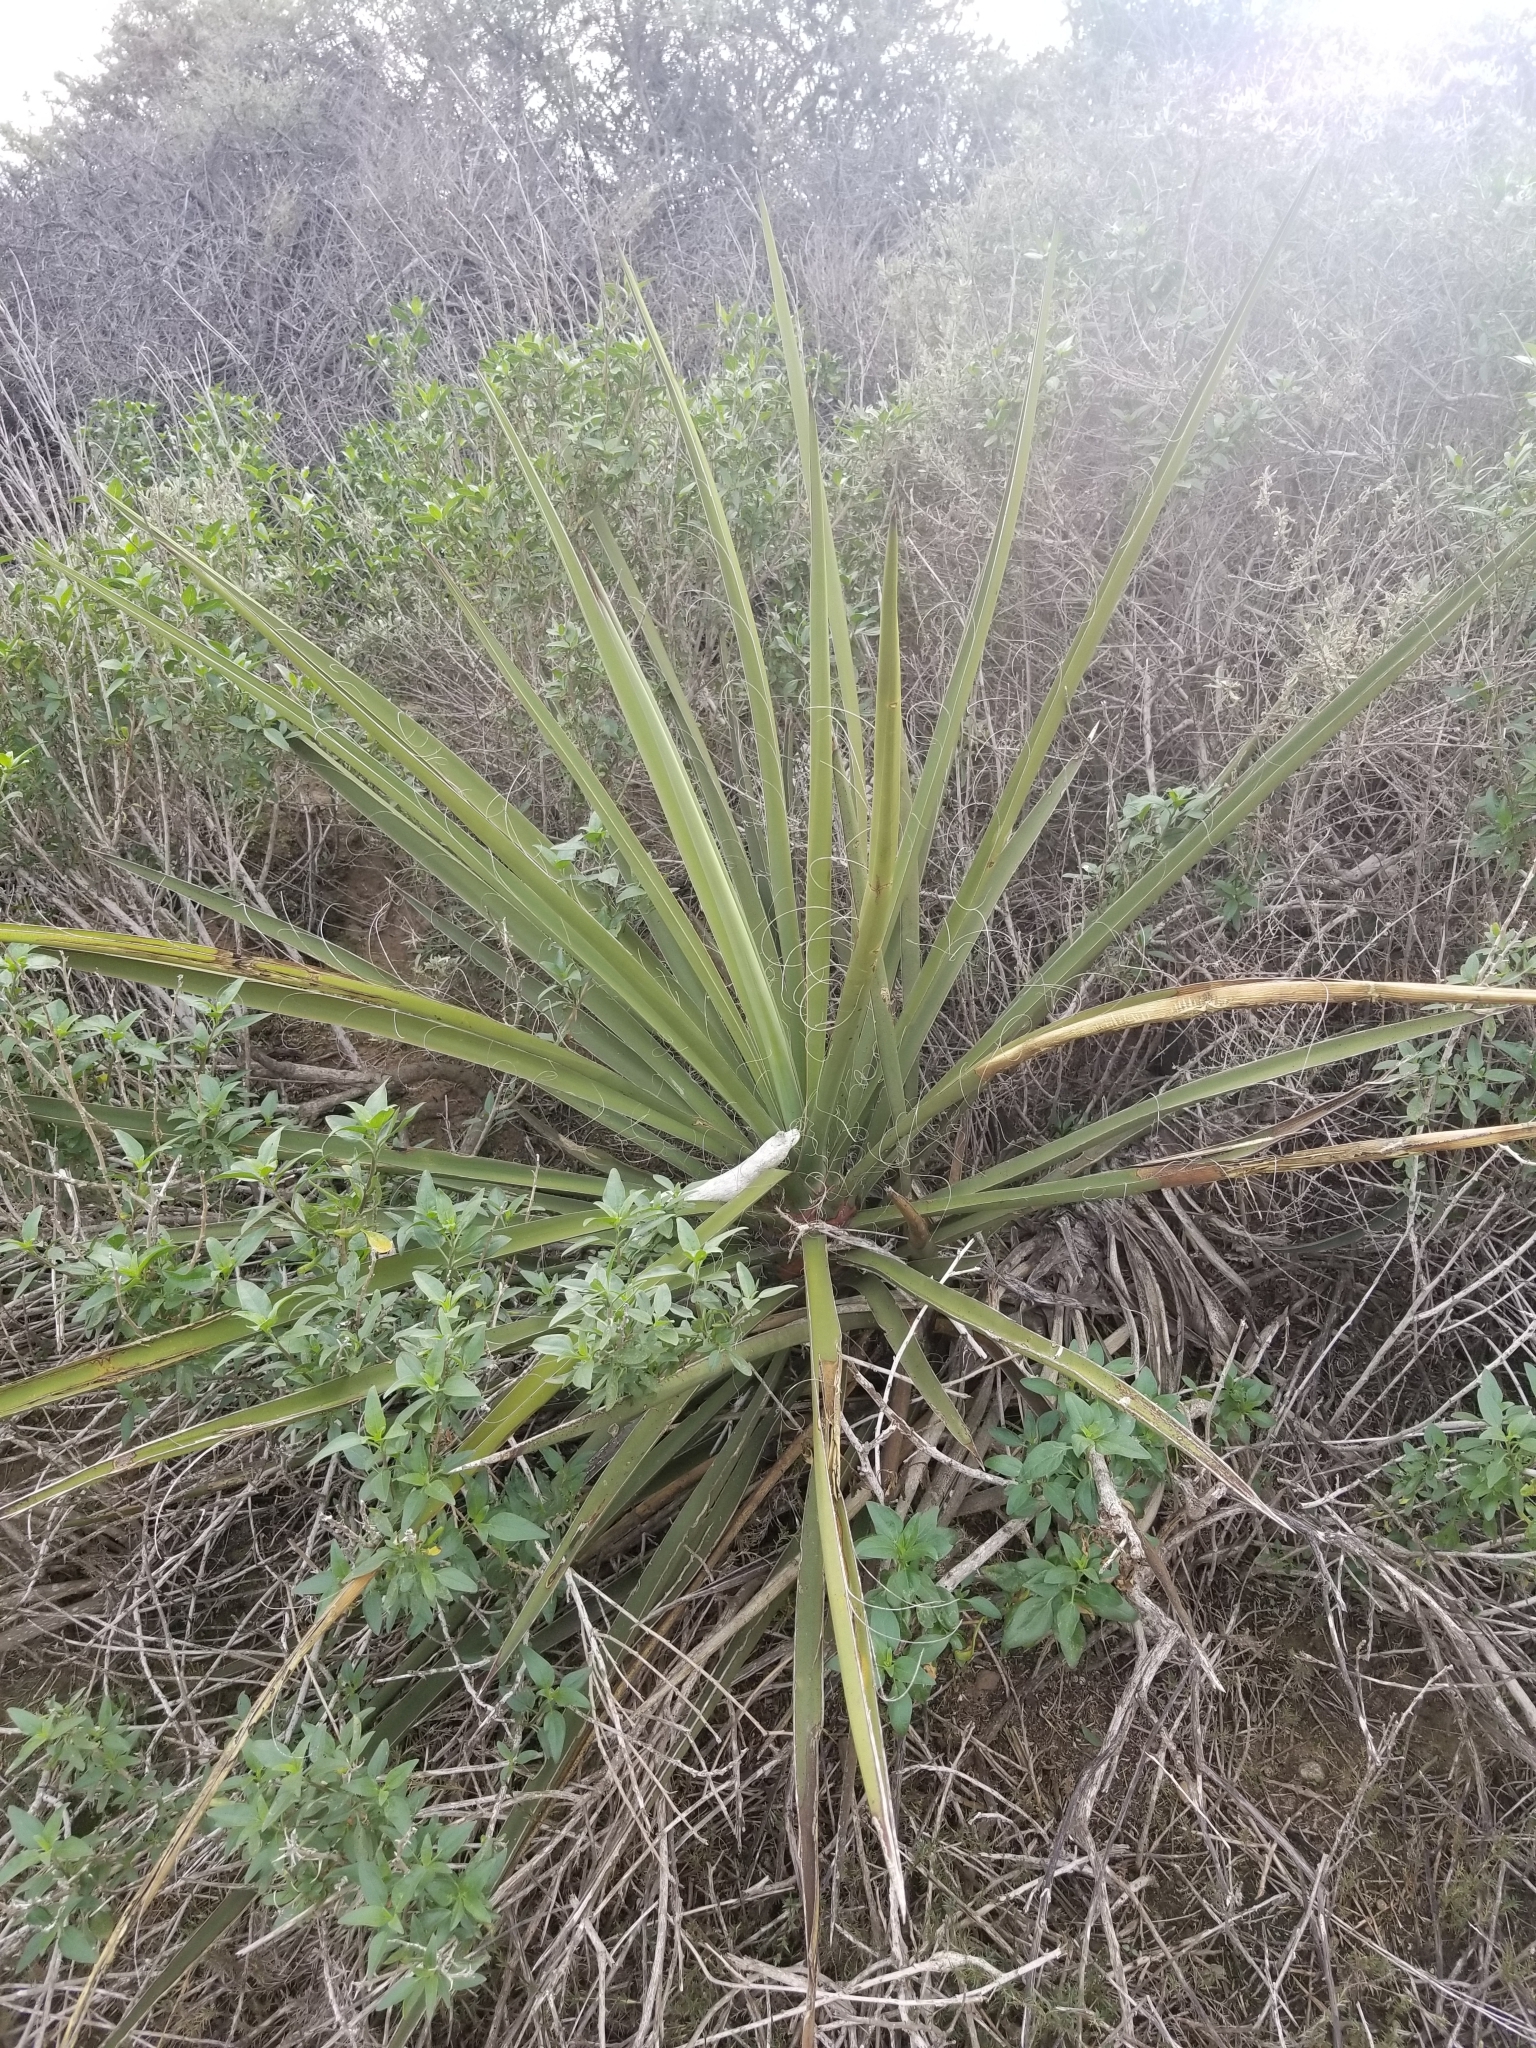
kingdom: Plantae
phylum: Tracheophyta
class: Liliopsida
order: Asparagales
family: Asparagaceae
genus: Yucca
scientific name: Yucca schidigera
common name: Mojave yucca
